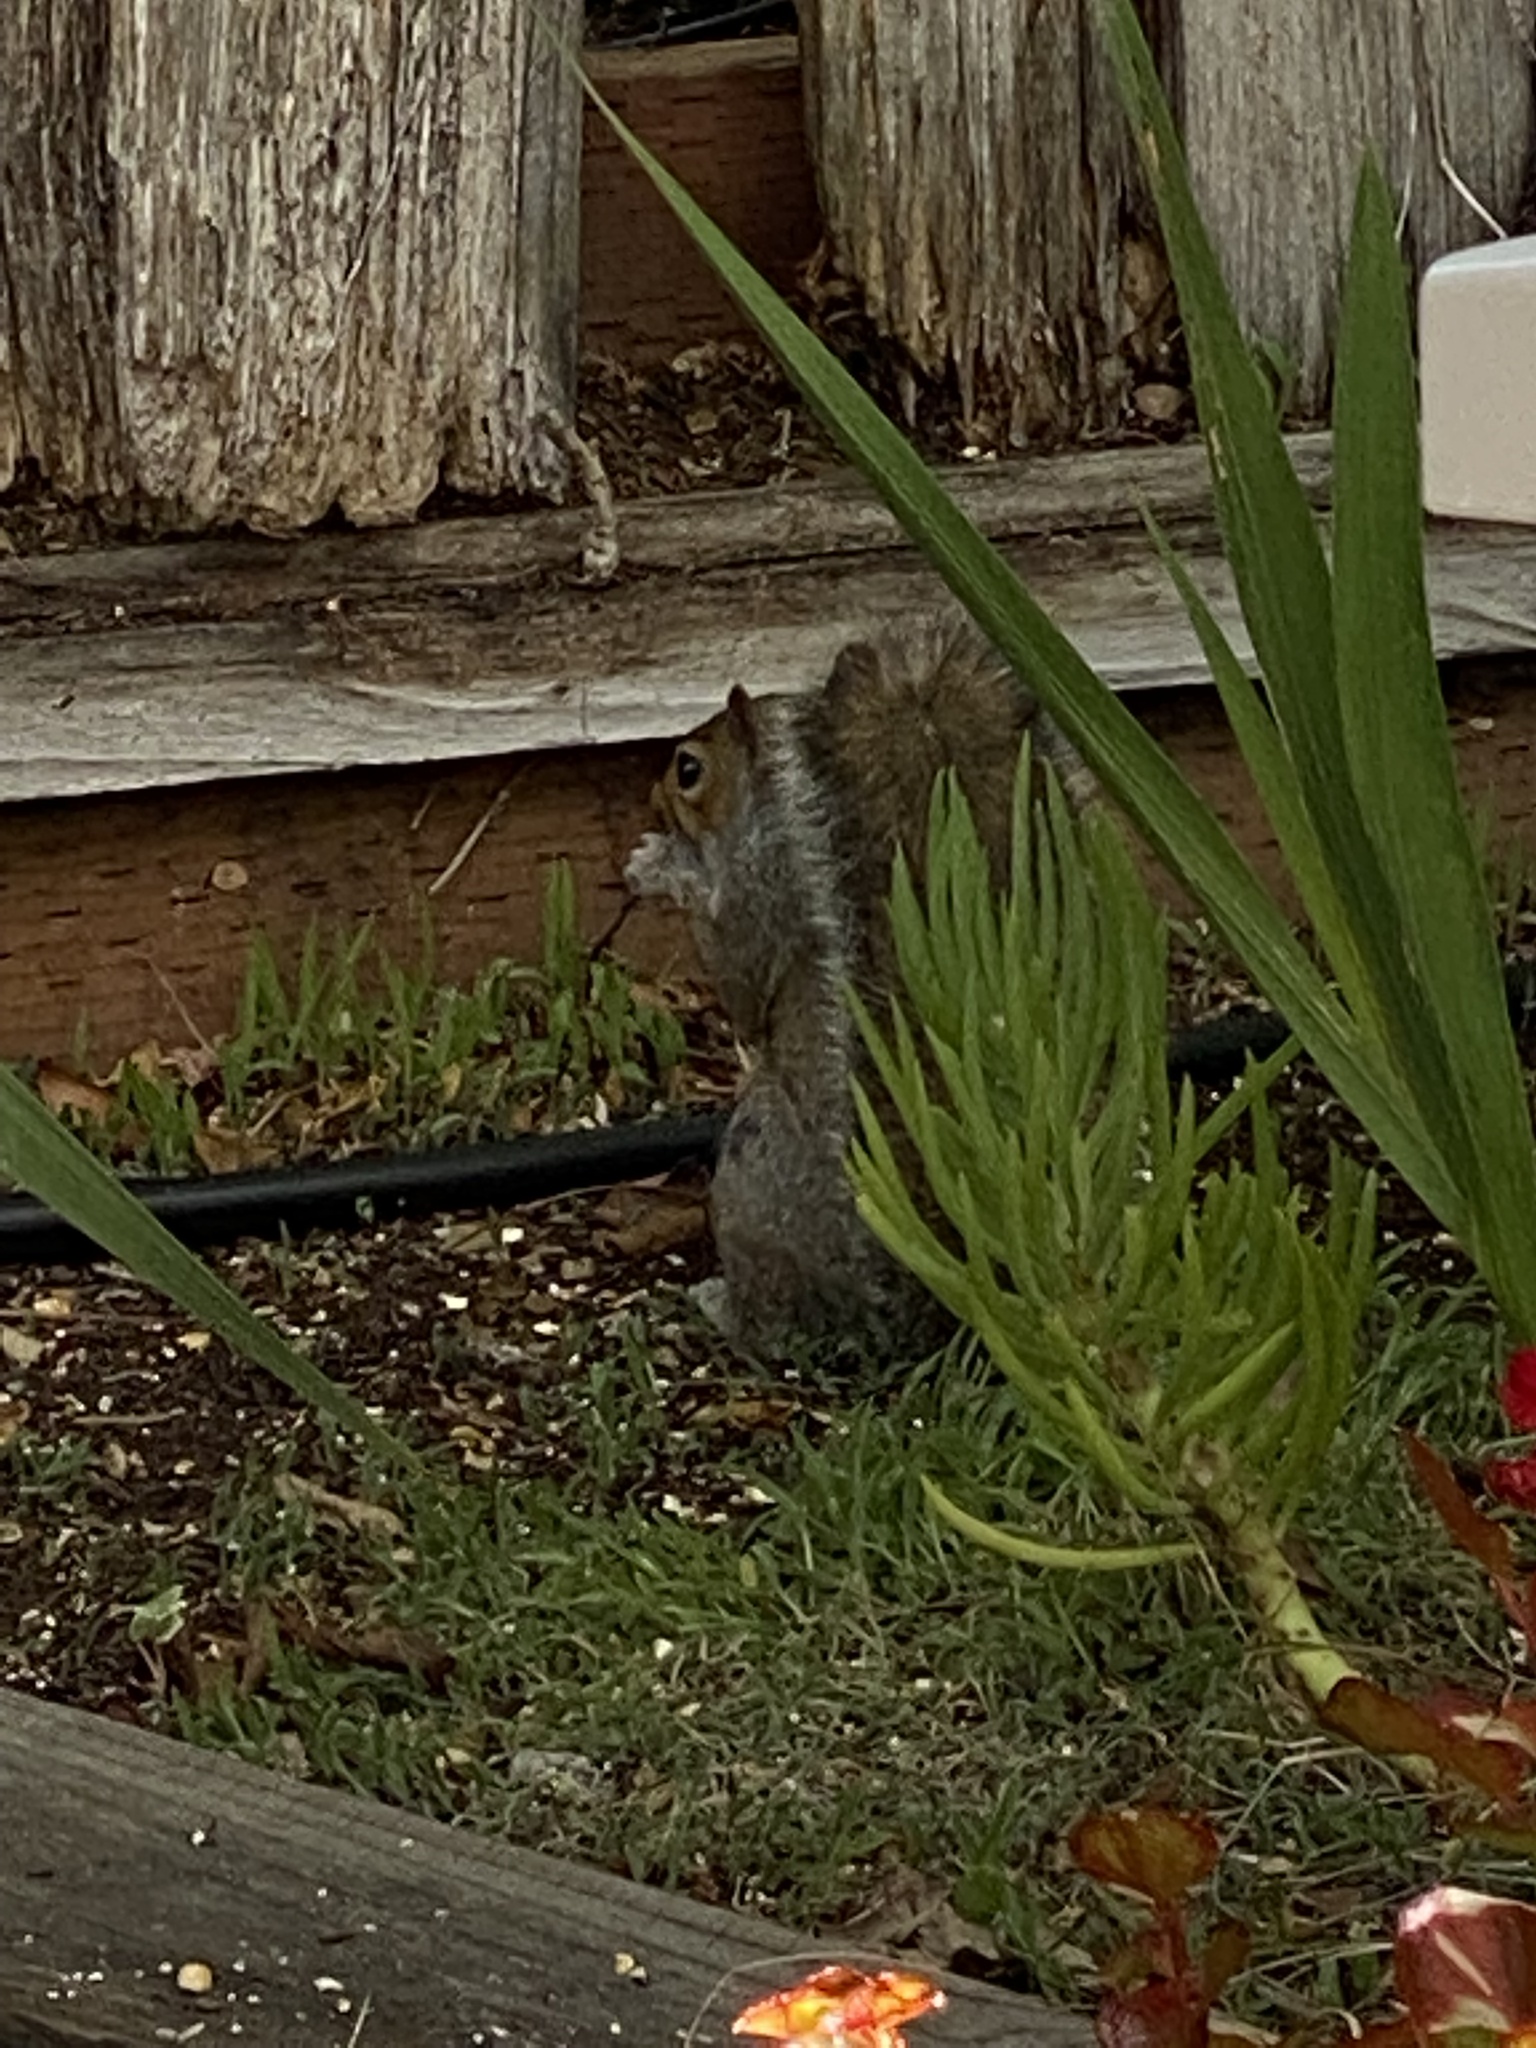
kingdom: Animalia
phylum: Chordata
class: Mammalia
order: Rodentia
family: Sciuridae
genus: Sciurus
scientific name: Sciurus carolinensis
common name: Eastern gray squirrel
